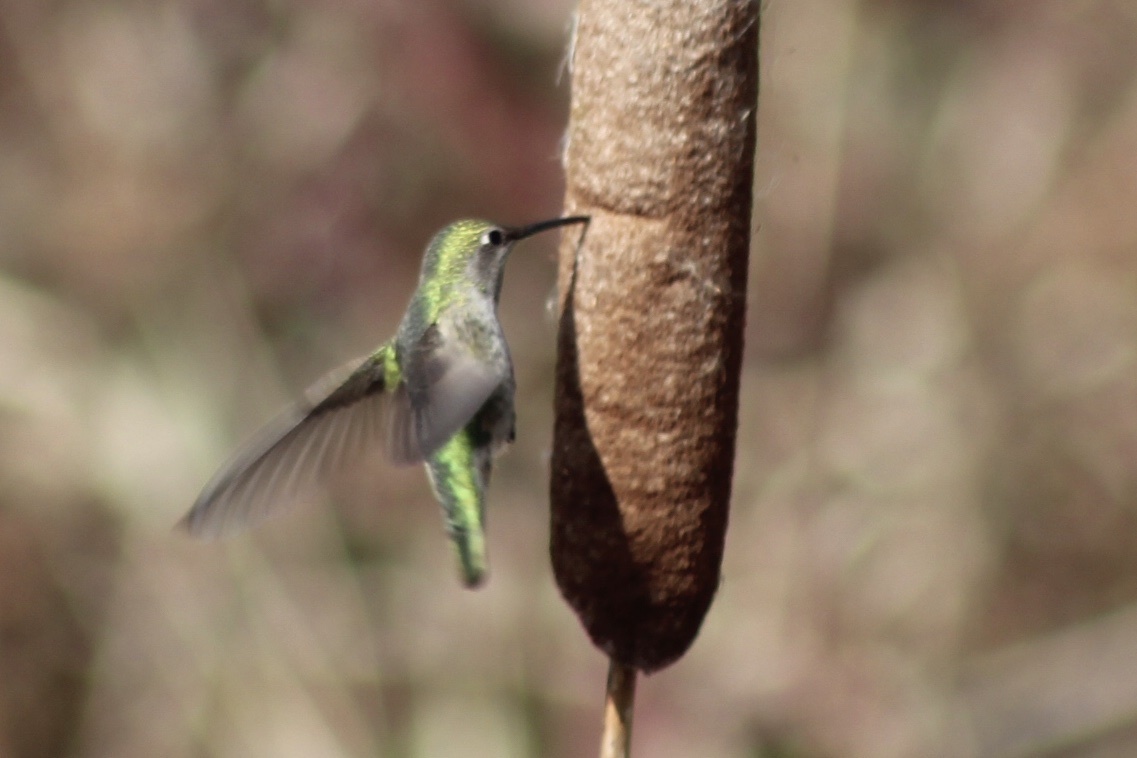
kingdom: Animalia
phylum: Chordata
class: Aves
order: Apodiformes
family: Trochilidae
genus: Calypte
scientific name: Calypte anna
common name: Anna's hummingbird
